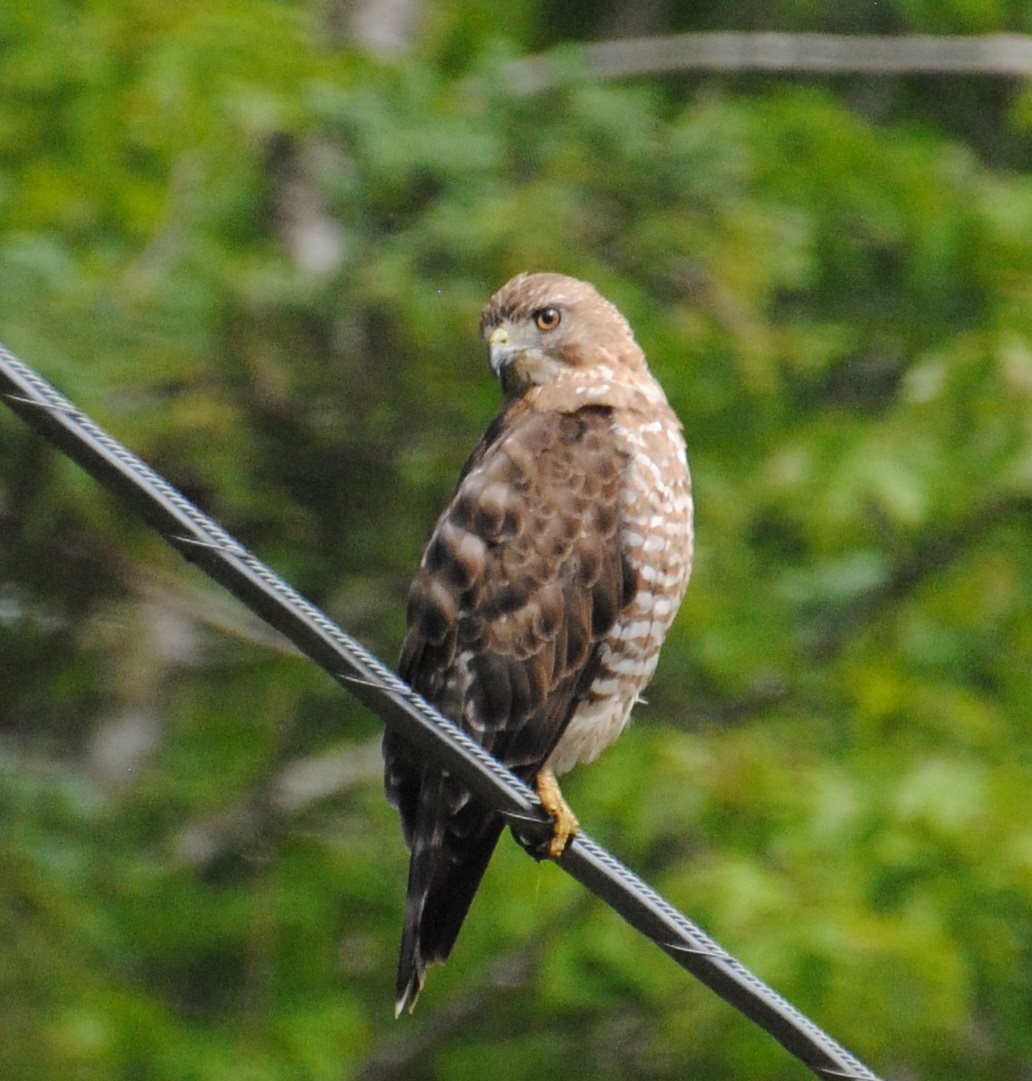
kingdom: Animalia
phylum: Chordata
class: Aves
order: Accipitriformes
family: Accipitridae
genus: Buteo
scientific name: Buteo platypterus
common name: Broad-winged hawk
